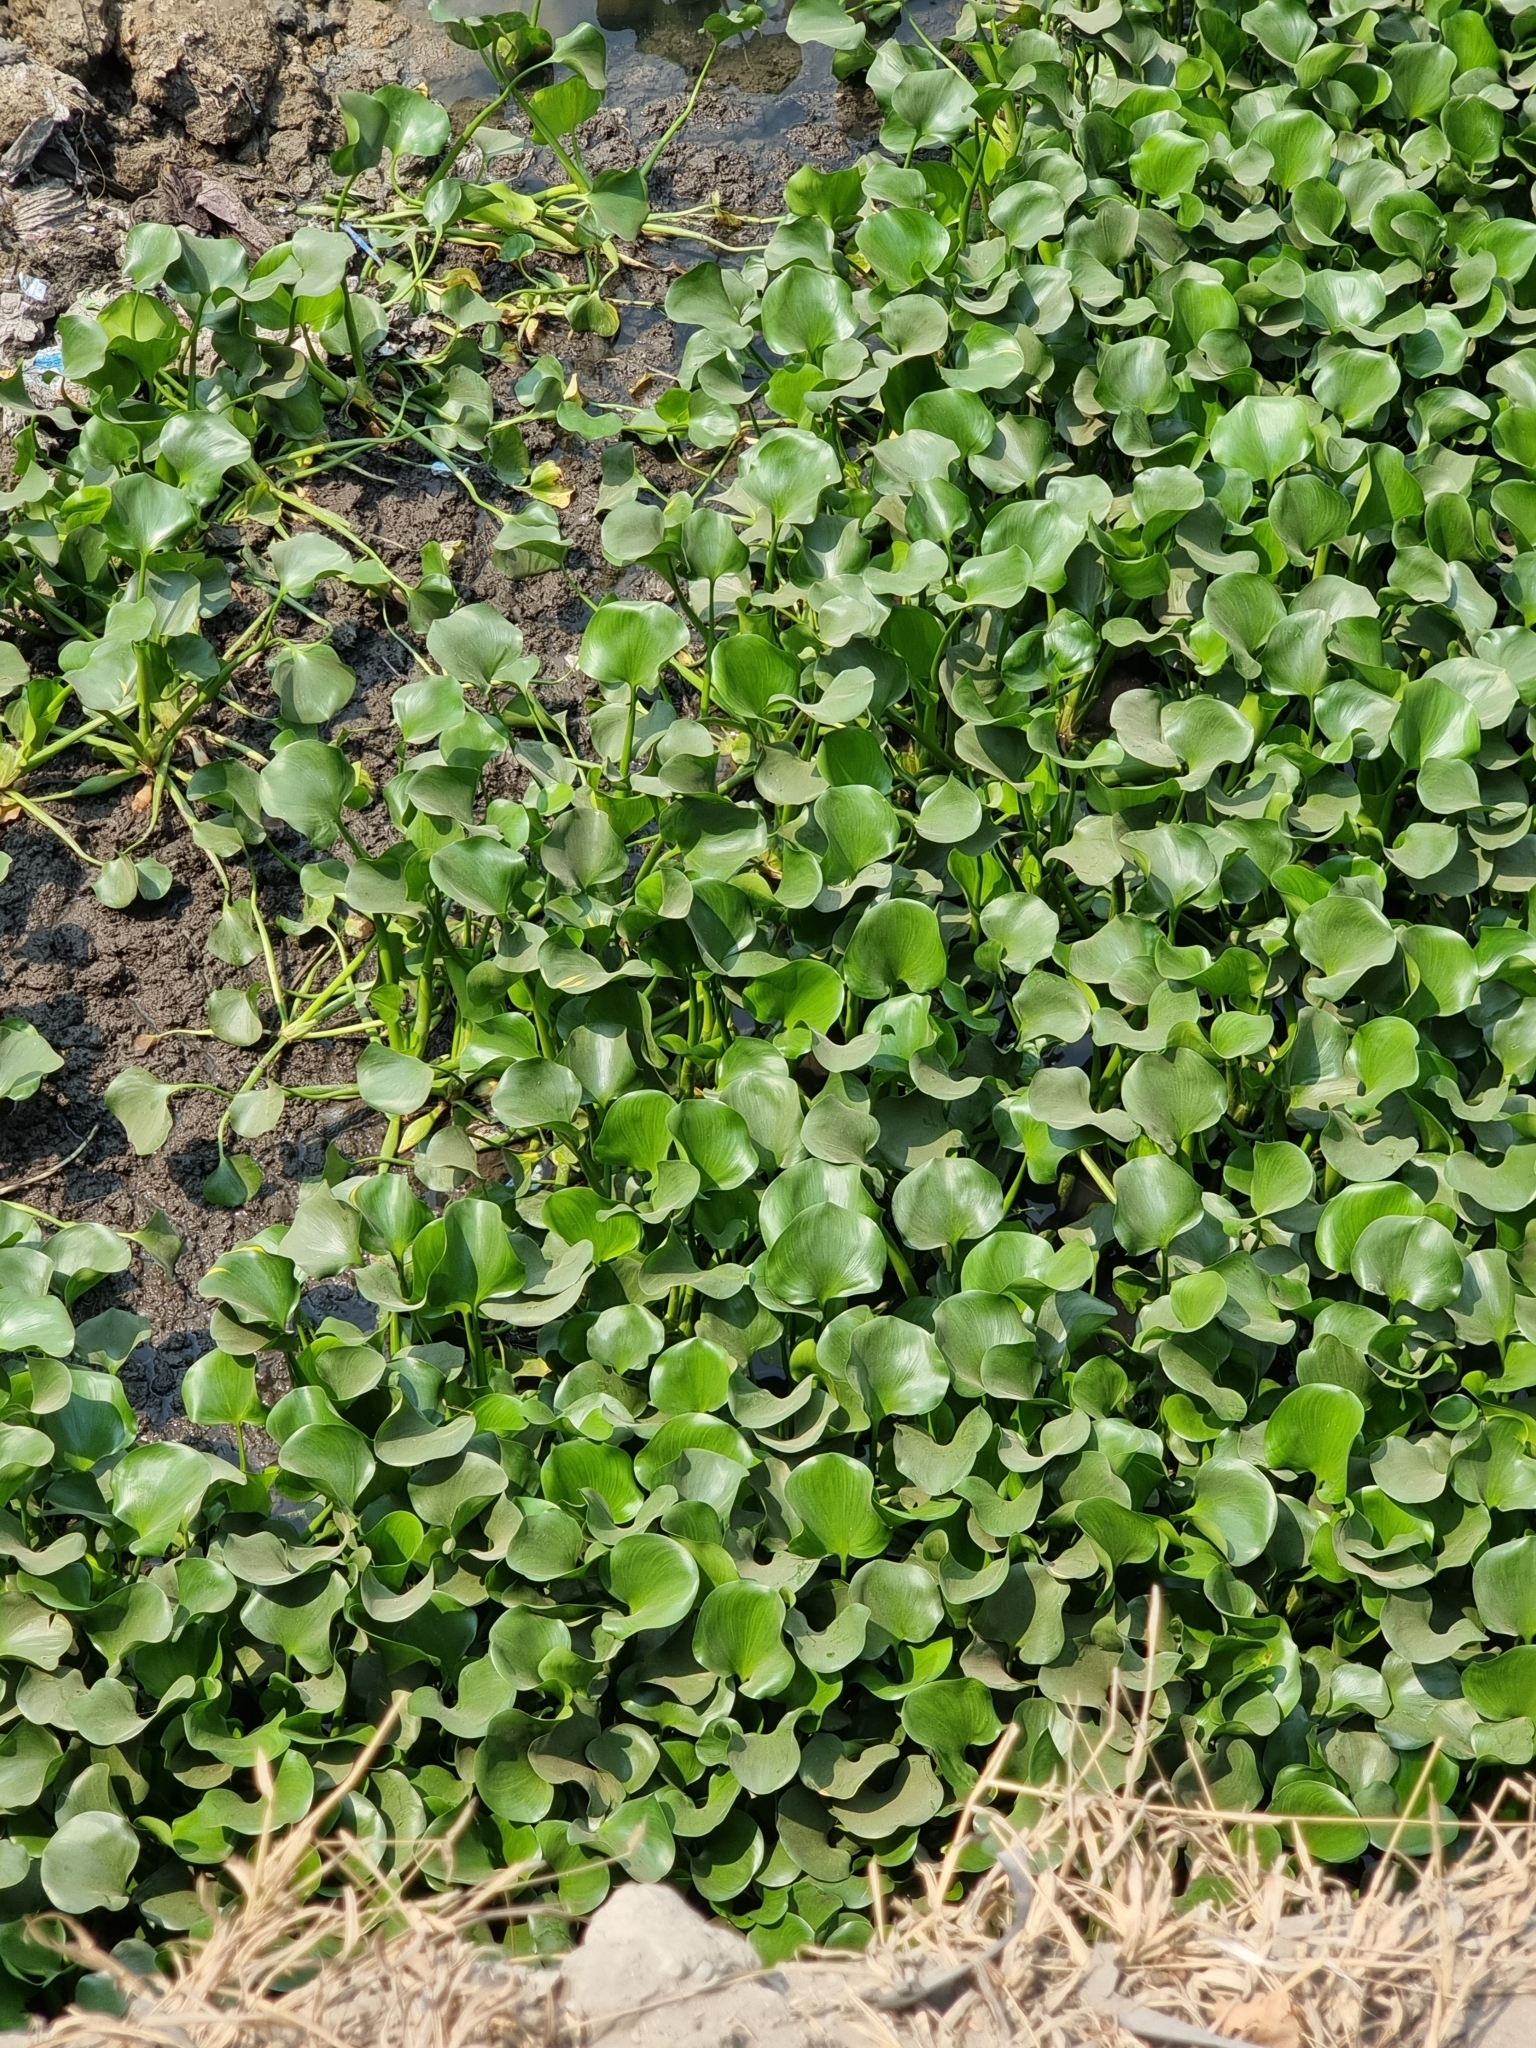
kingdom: Plantae
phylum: Tracheophyta
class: Liliopsida
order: Commelinales
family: Pontederiaceae
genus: Pontederia
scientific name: Pontederia crassipes
